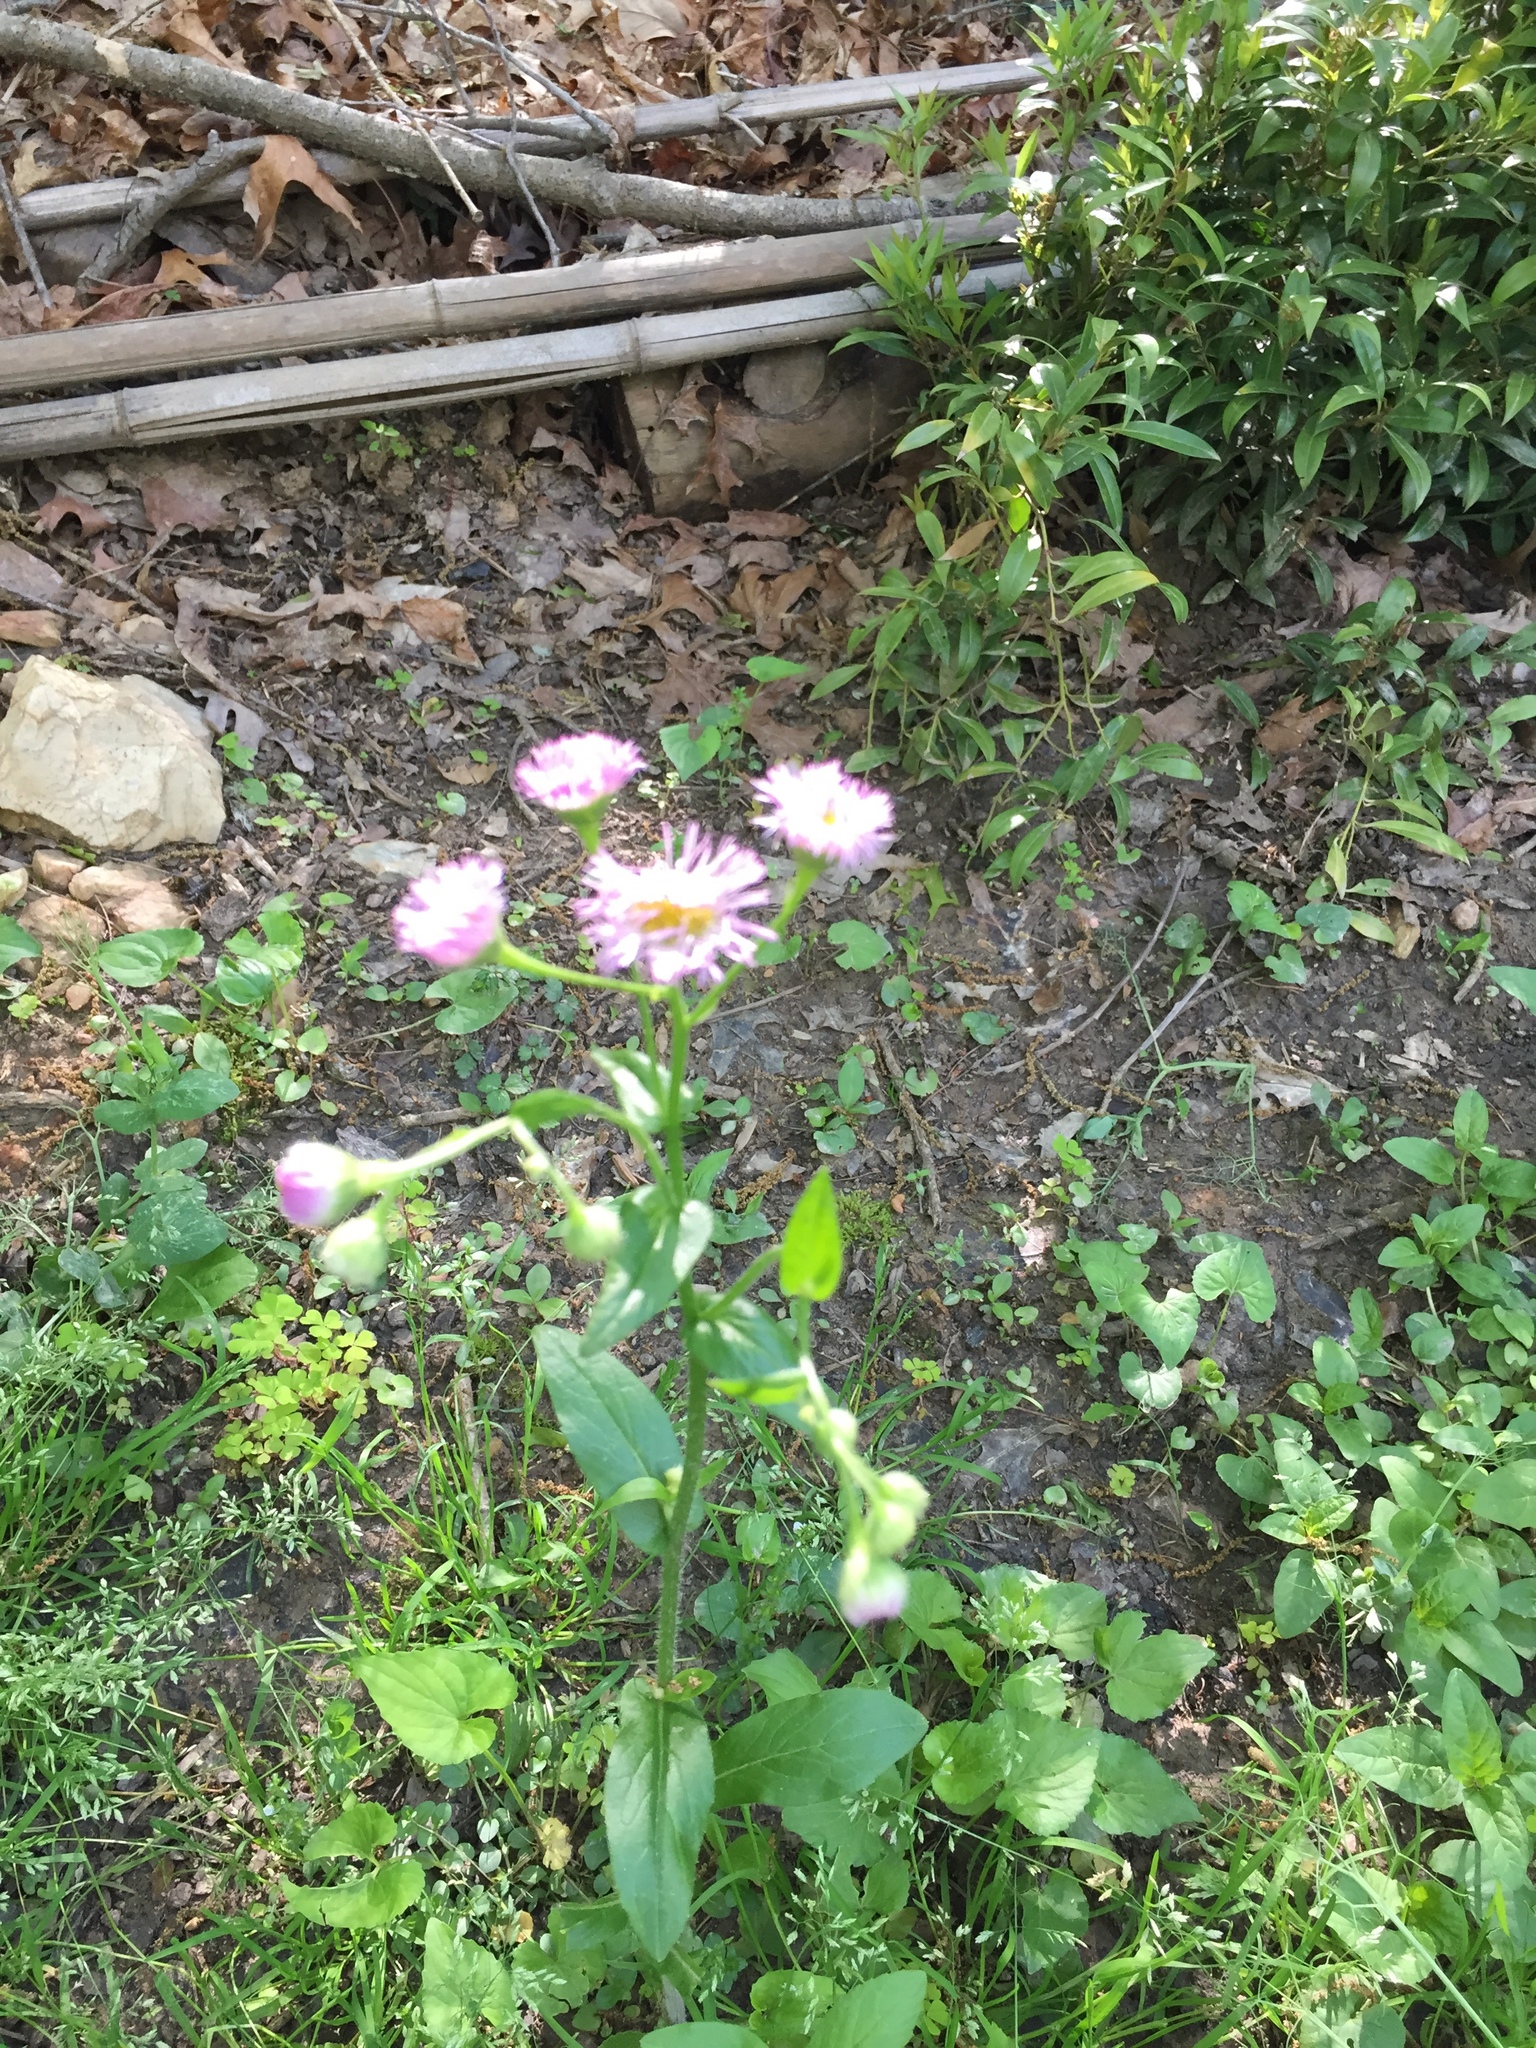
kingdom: Plantae
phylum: Tracheophyta
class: Magnoliopsida
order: Asterales
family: Asteraceae
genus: Erigeron
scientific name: Erigeron philadelphicus
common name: Robin's-plantain
